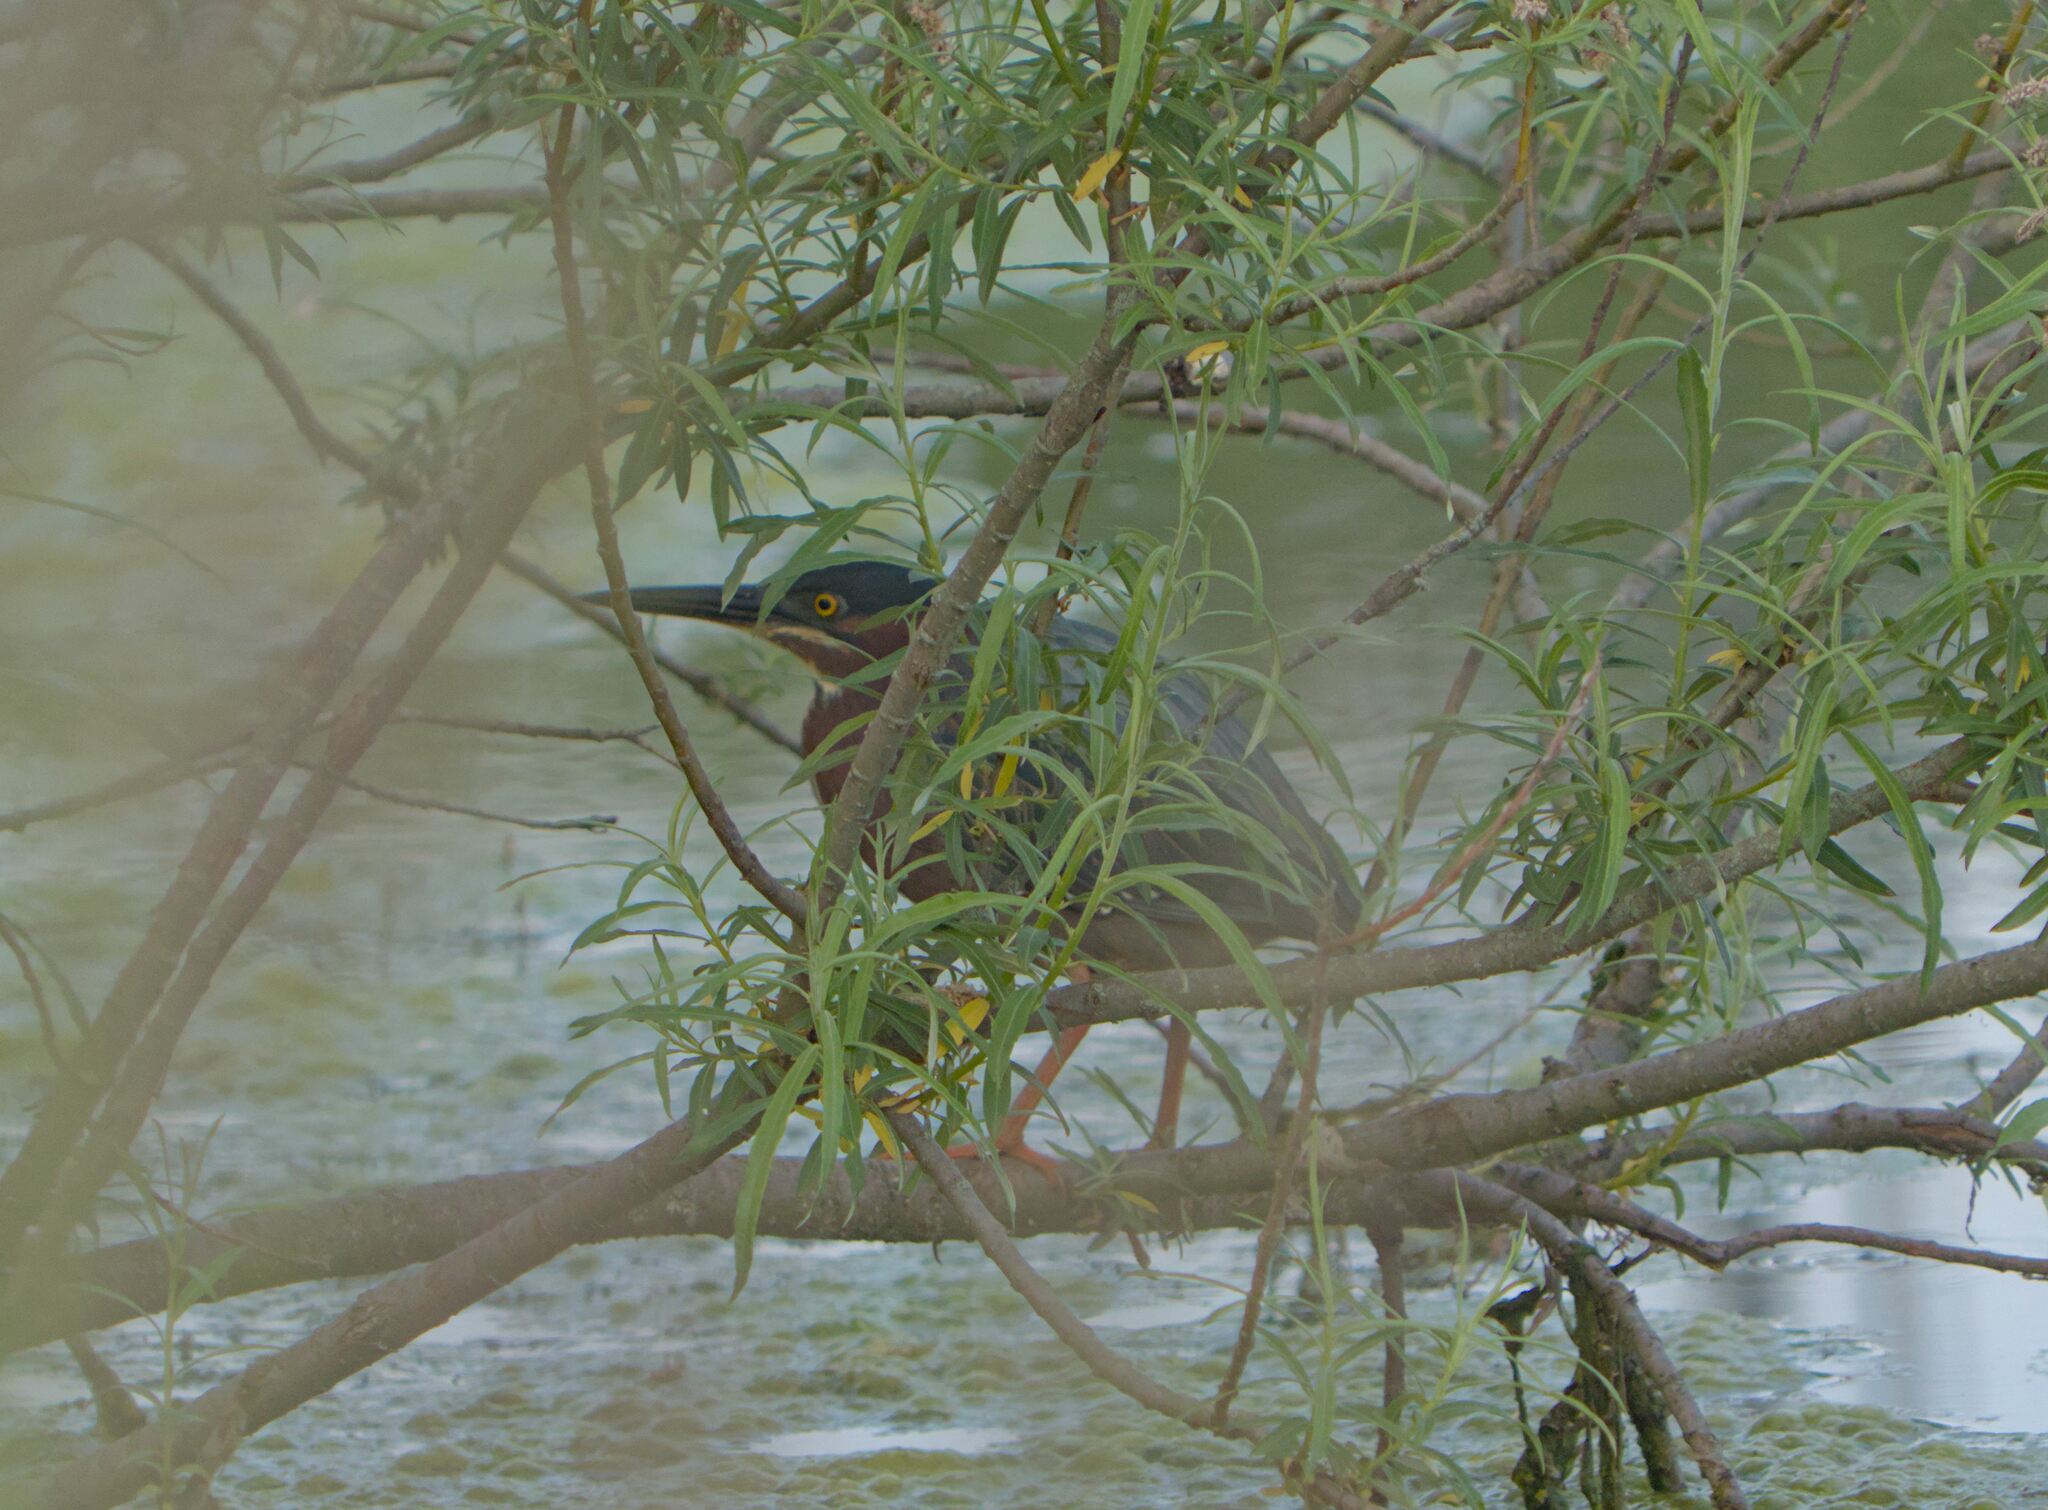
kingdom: Animalia
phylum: Chordata
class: Aves
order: Pelecaniformes
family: Ardeidae
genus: Butorides
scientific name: Butorides virescens
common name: Green heron
